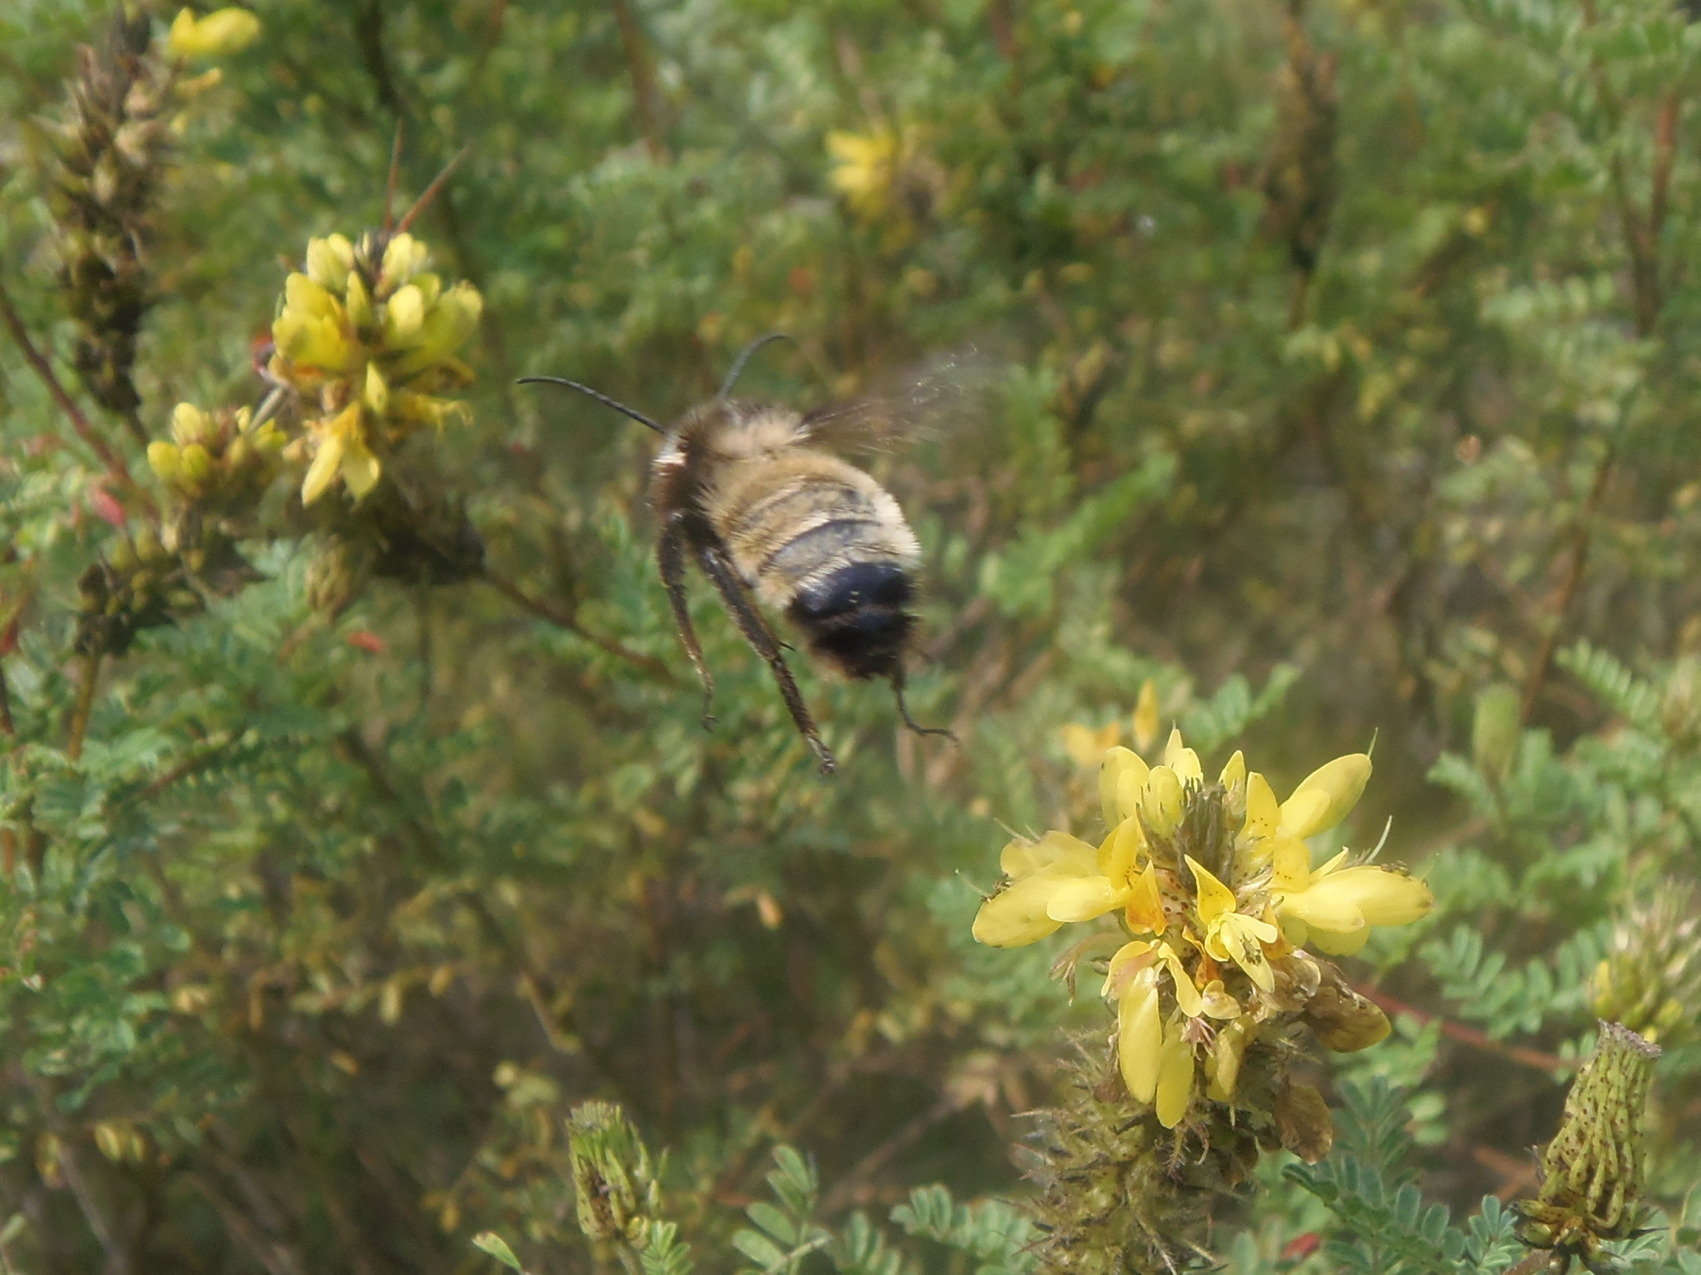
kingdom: Animalia
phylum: Arthropoda
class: Insecta
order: Hymenoptera
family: Apidae
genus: Bombus
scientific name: Bombus sonorus
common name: Sonoran bumble bee
